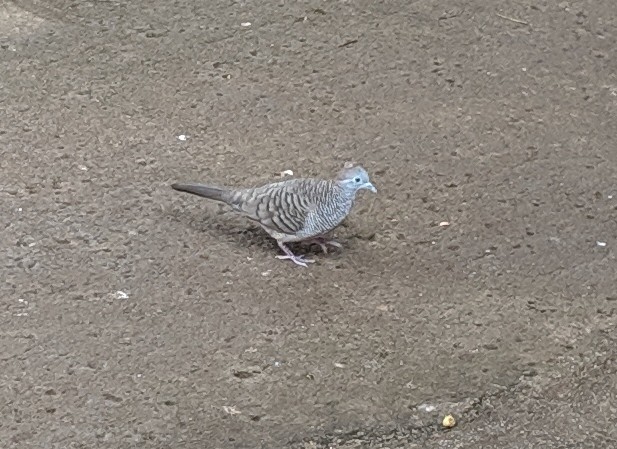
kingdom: Animalia
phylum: Chordata
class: Aves
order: Columbiformes
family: Columbidae
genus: Geopelia
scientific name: Geopelia striata
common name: Zebra dove
